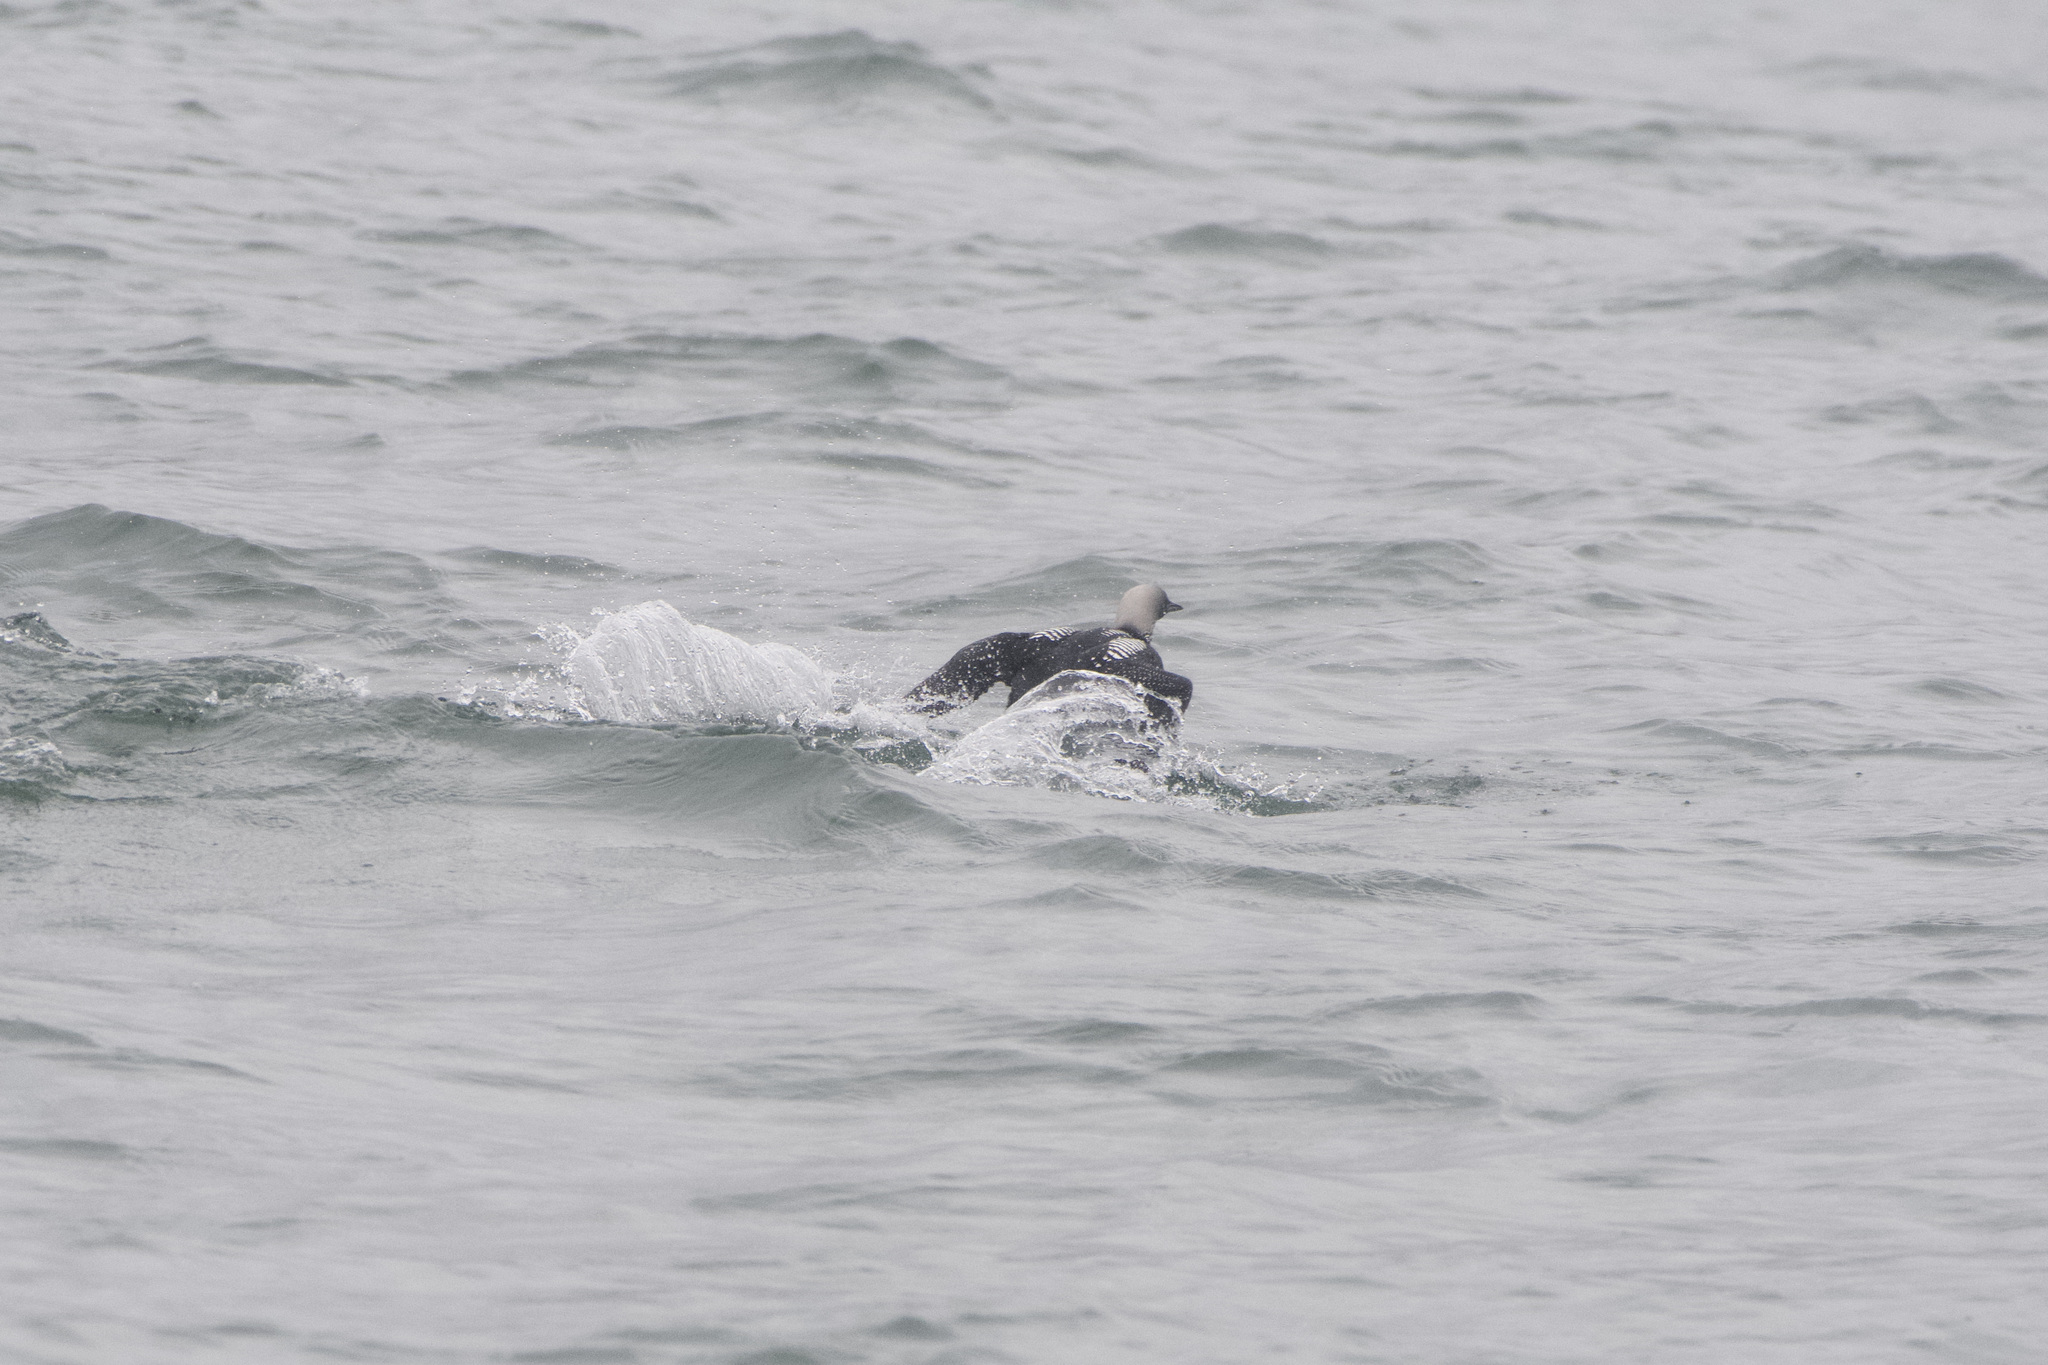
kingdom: Animalia
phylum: Chordata
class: Aves
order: Gaviiformes
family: Gaviidae
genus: Gavia
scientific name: Gavia pacifica
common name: Pacific loon
